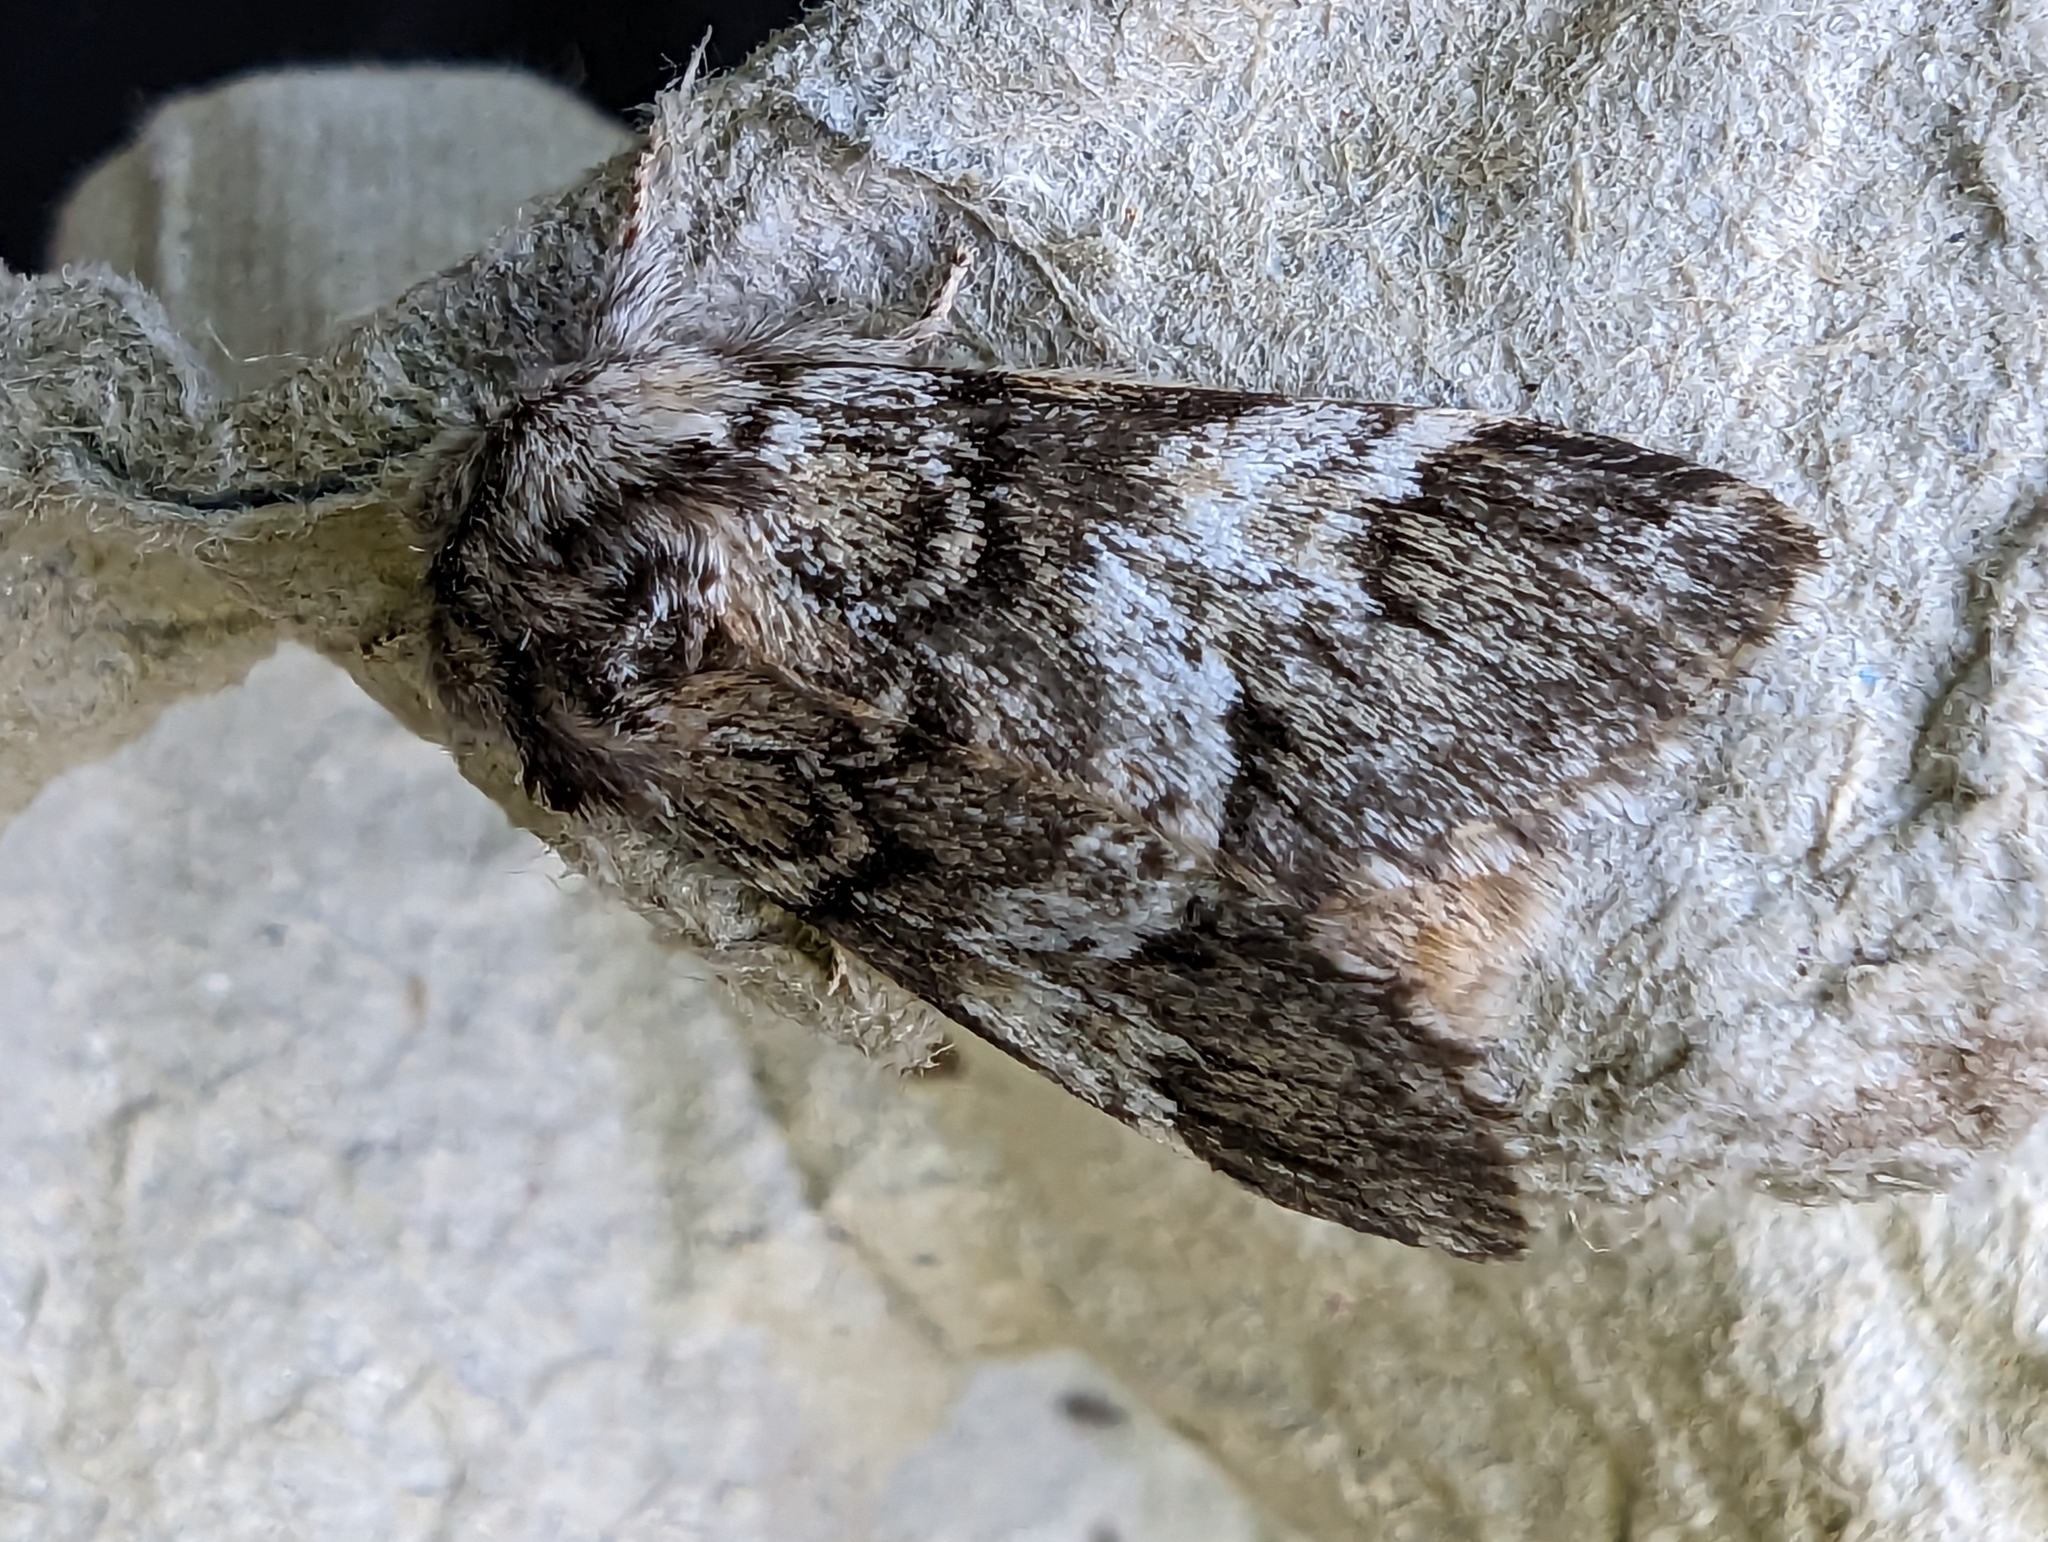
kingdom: Animalia
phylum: Arthropoda
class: Insecta
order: Lepidoptera
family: Notodontidae
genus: Drymonia
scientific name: Drymonia dodonaea
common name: Marbled brown
